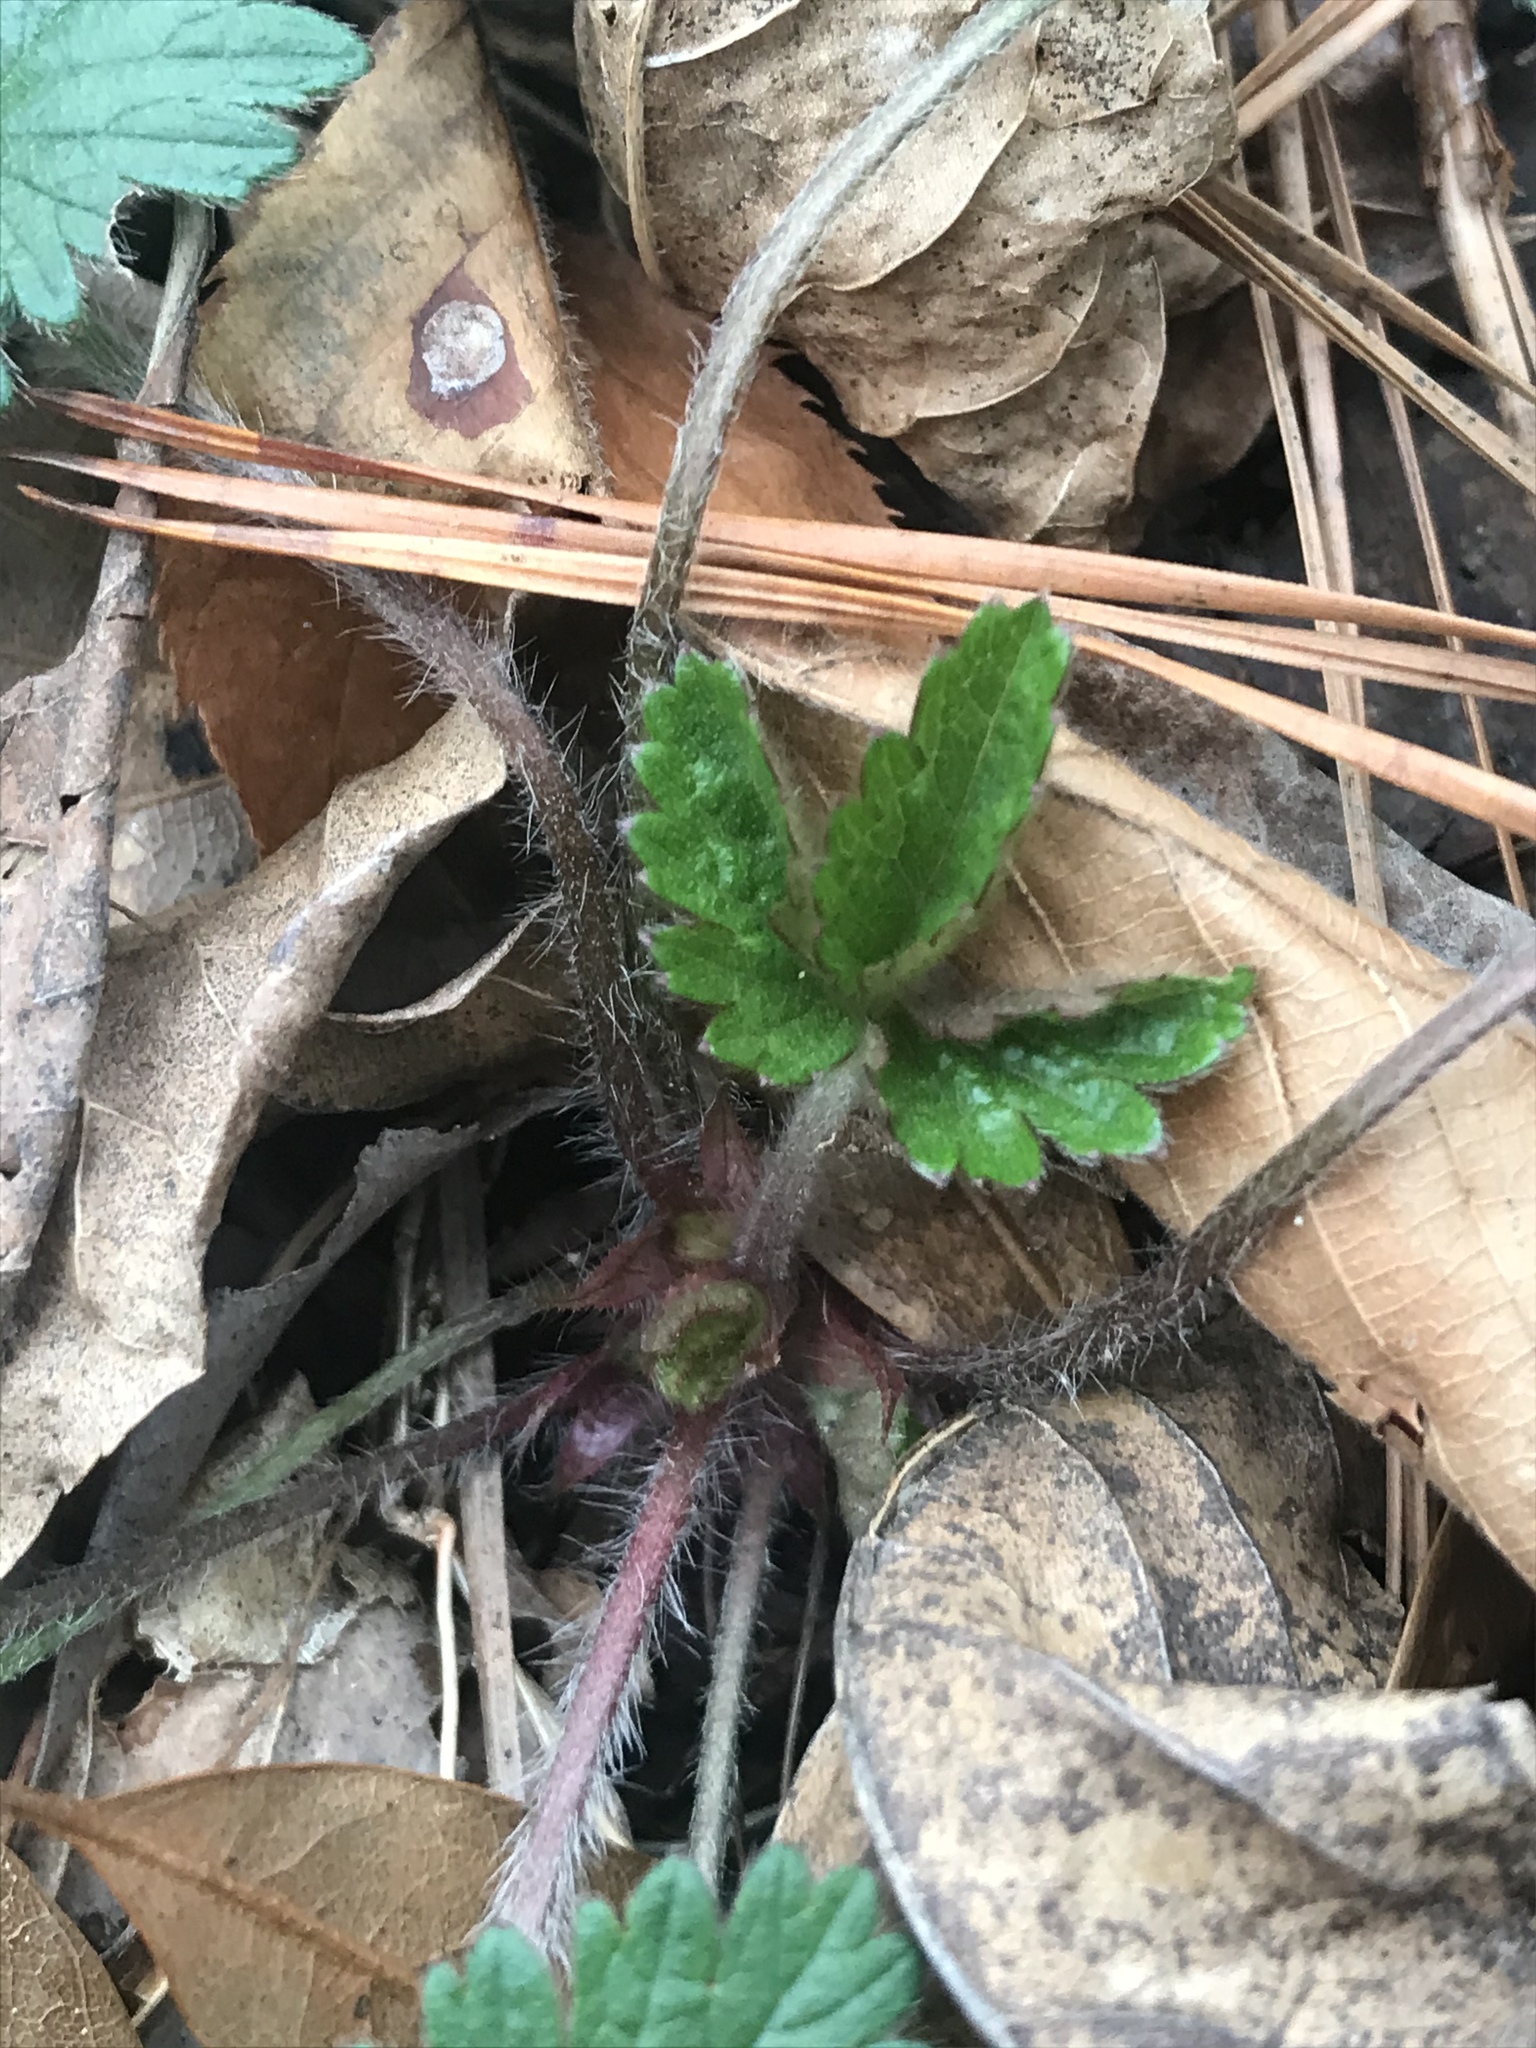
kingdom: Plantae
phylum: Tracheophyta
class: Magnoliopsida
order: Rosales
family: Rosaceae
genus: Potentilla
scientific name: Potentilla indica
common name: Yellow-flowered strawberry
